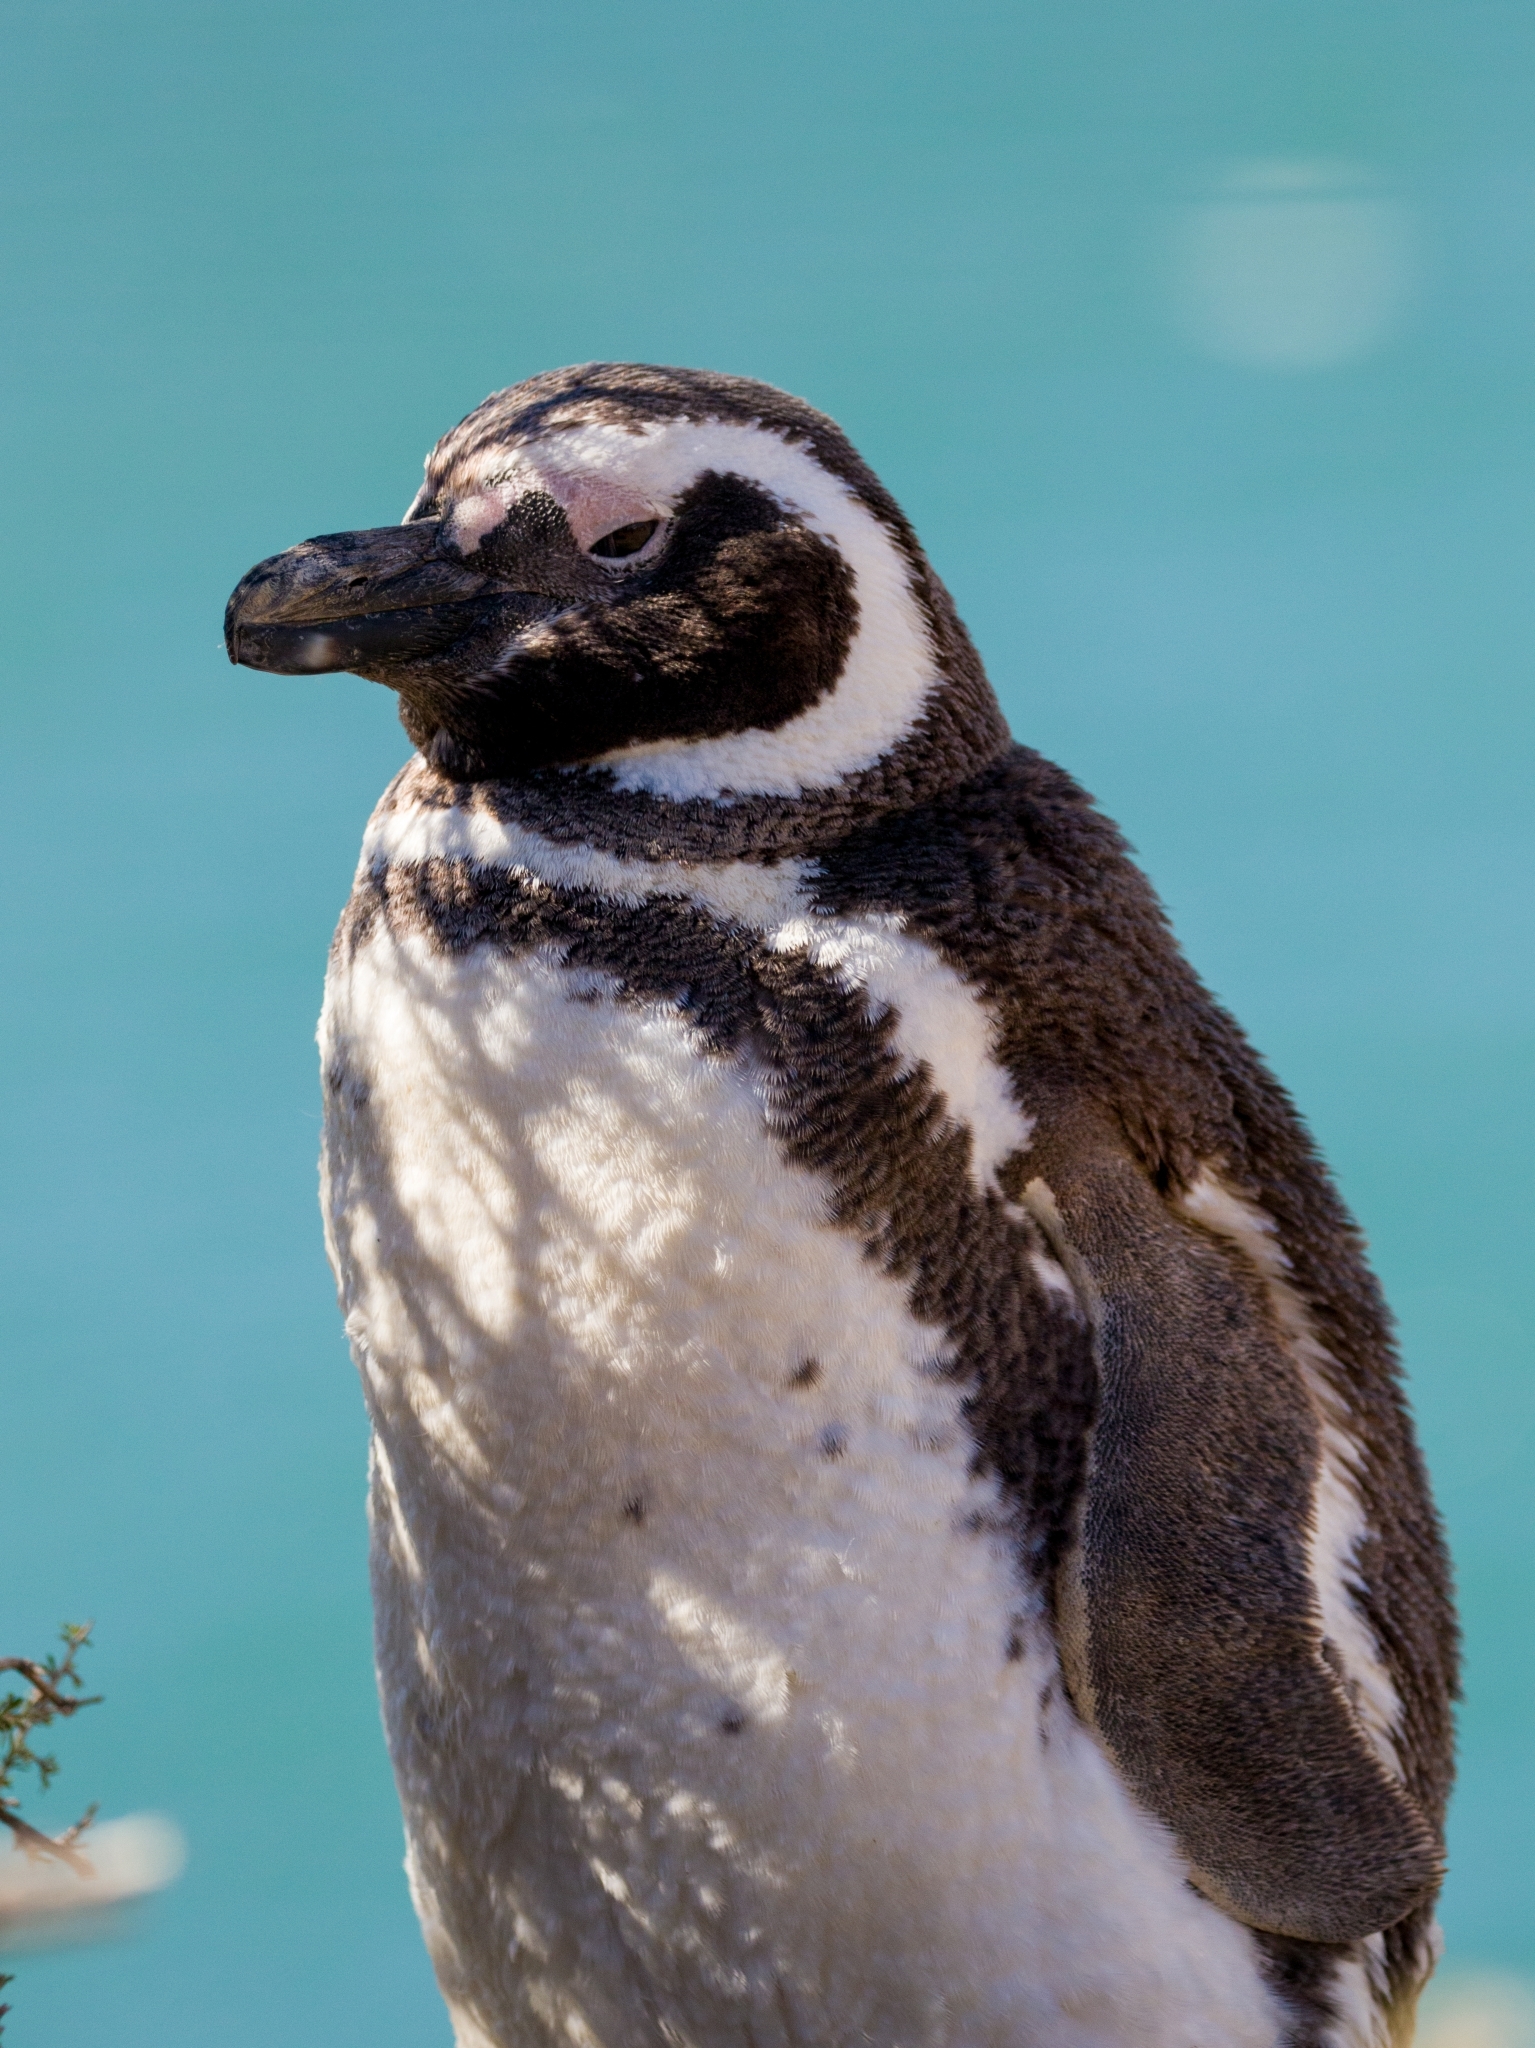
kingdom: Animalia
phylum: Chordata
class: Aves
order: Sphenisciformes
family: Spheniscidae
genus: Spheniscus
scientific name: Spheniscus magellanicus
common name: Magellanic penguin
